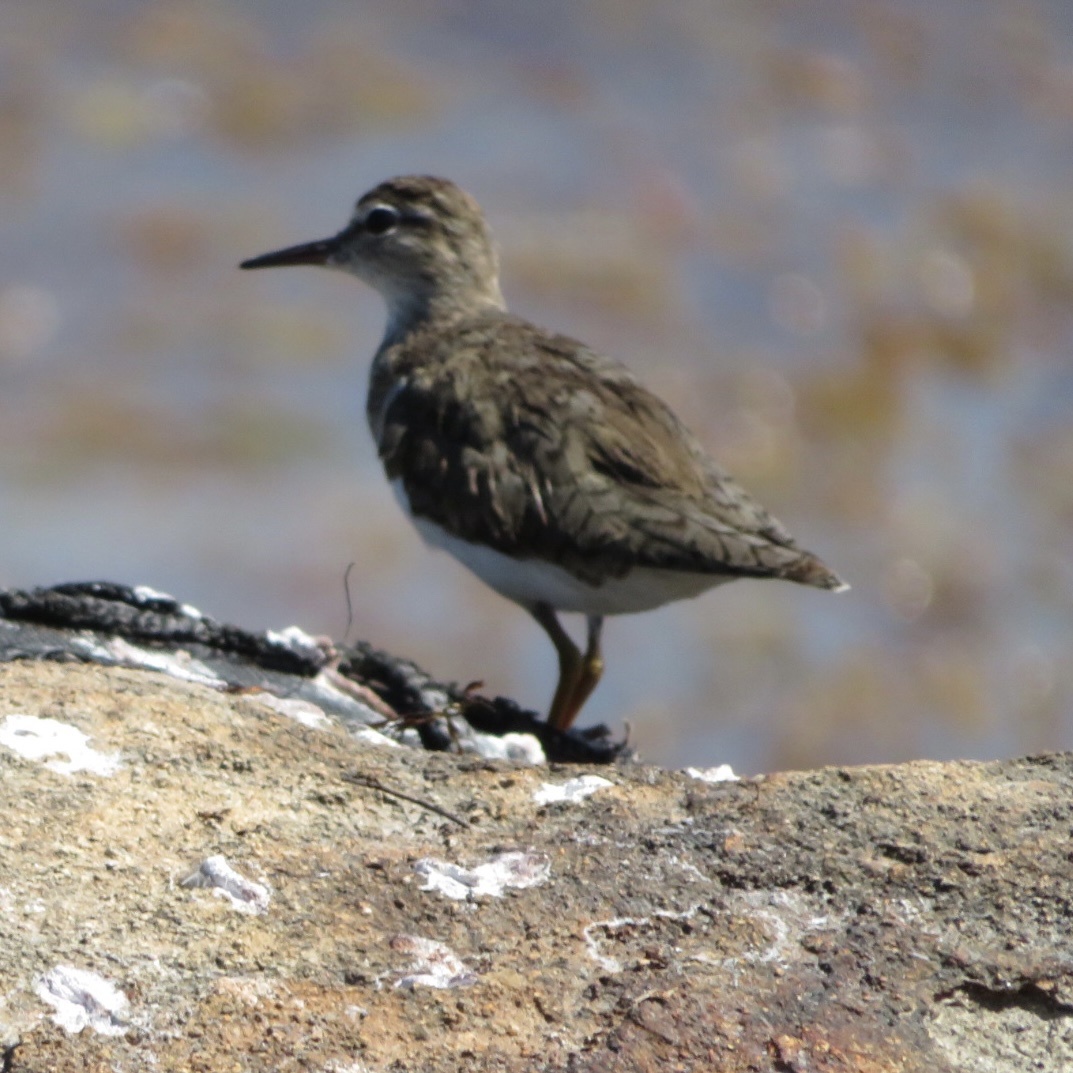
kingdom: Animalia
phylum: Chordata
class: Aves
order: Charadriiformes
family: Scolopacidae
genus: Actitis
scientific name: Actitis macularius
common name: Spotted sandpiper
